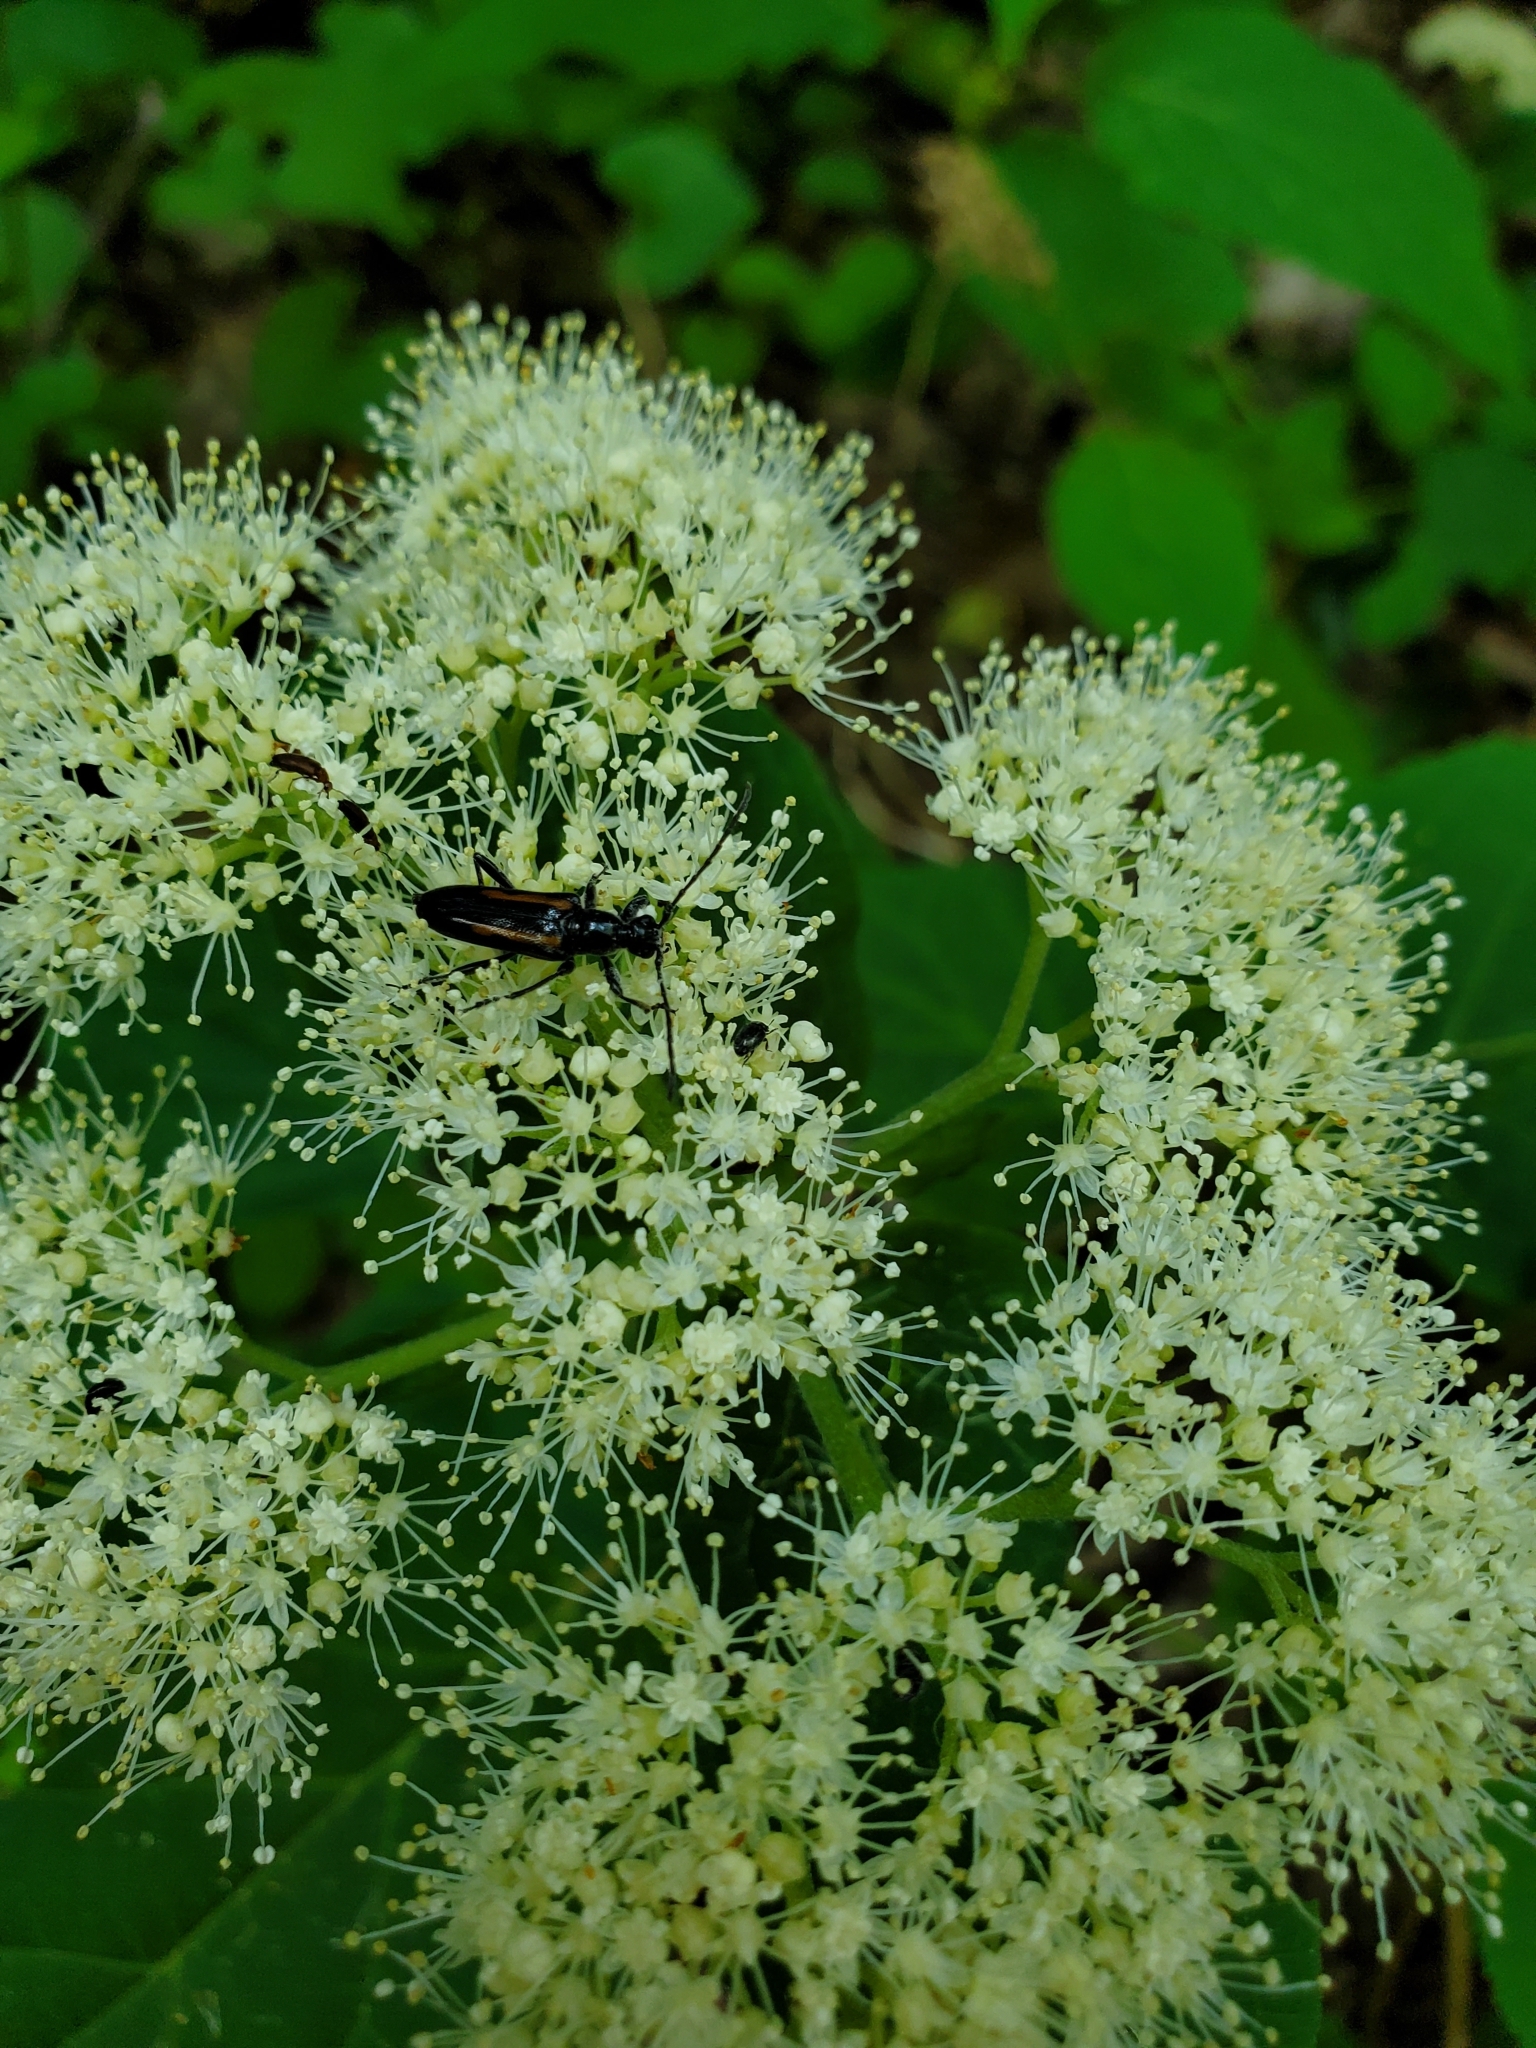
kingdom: Animalia
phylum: Arthropoda
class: Insecta
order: Coleoptera
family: Cerambycidae
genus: Strangalepta
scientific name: Strangalepta abbreviata
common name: Strangalepta flower longhorn beetle
